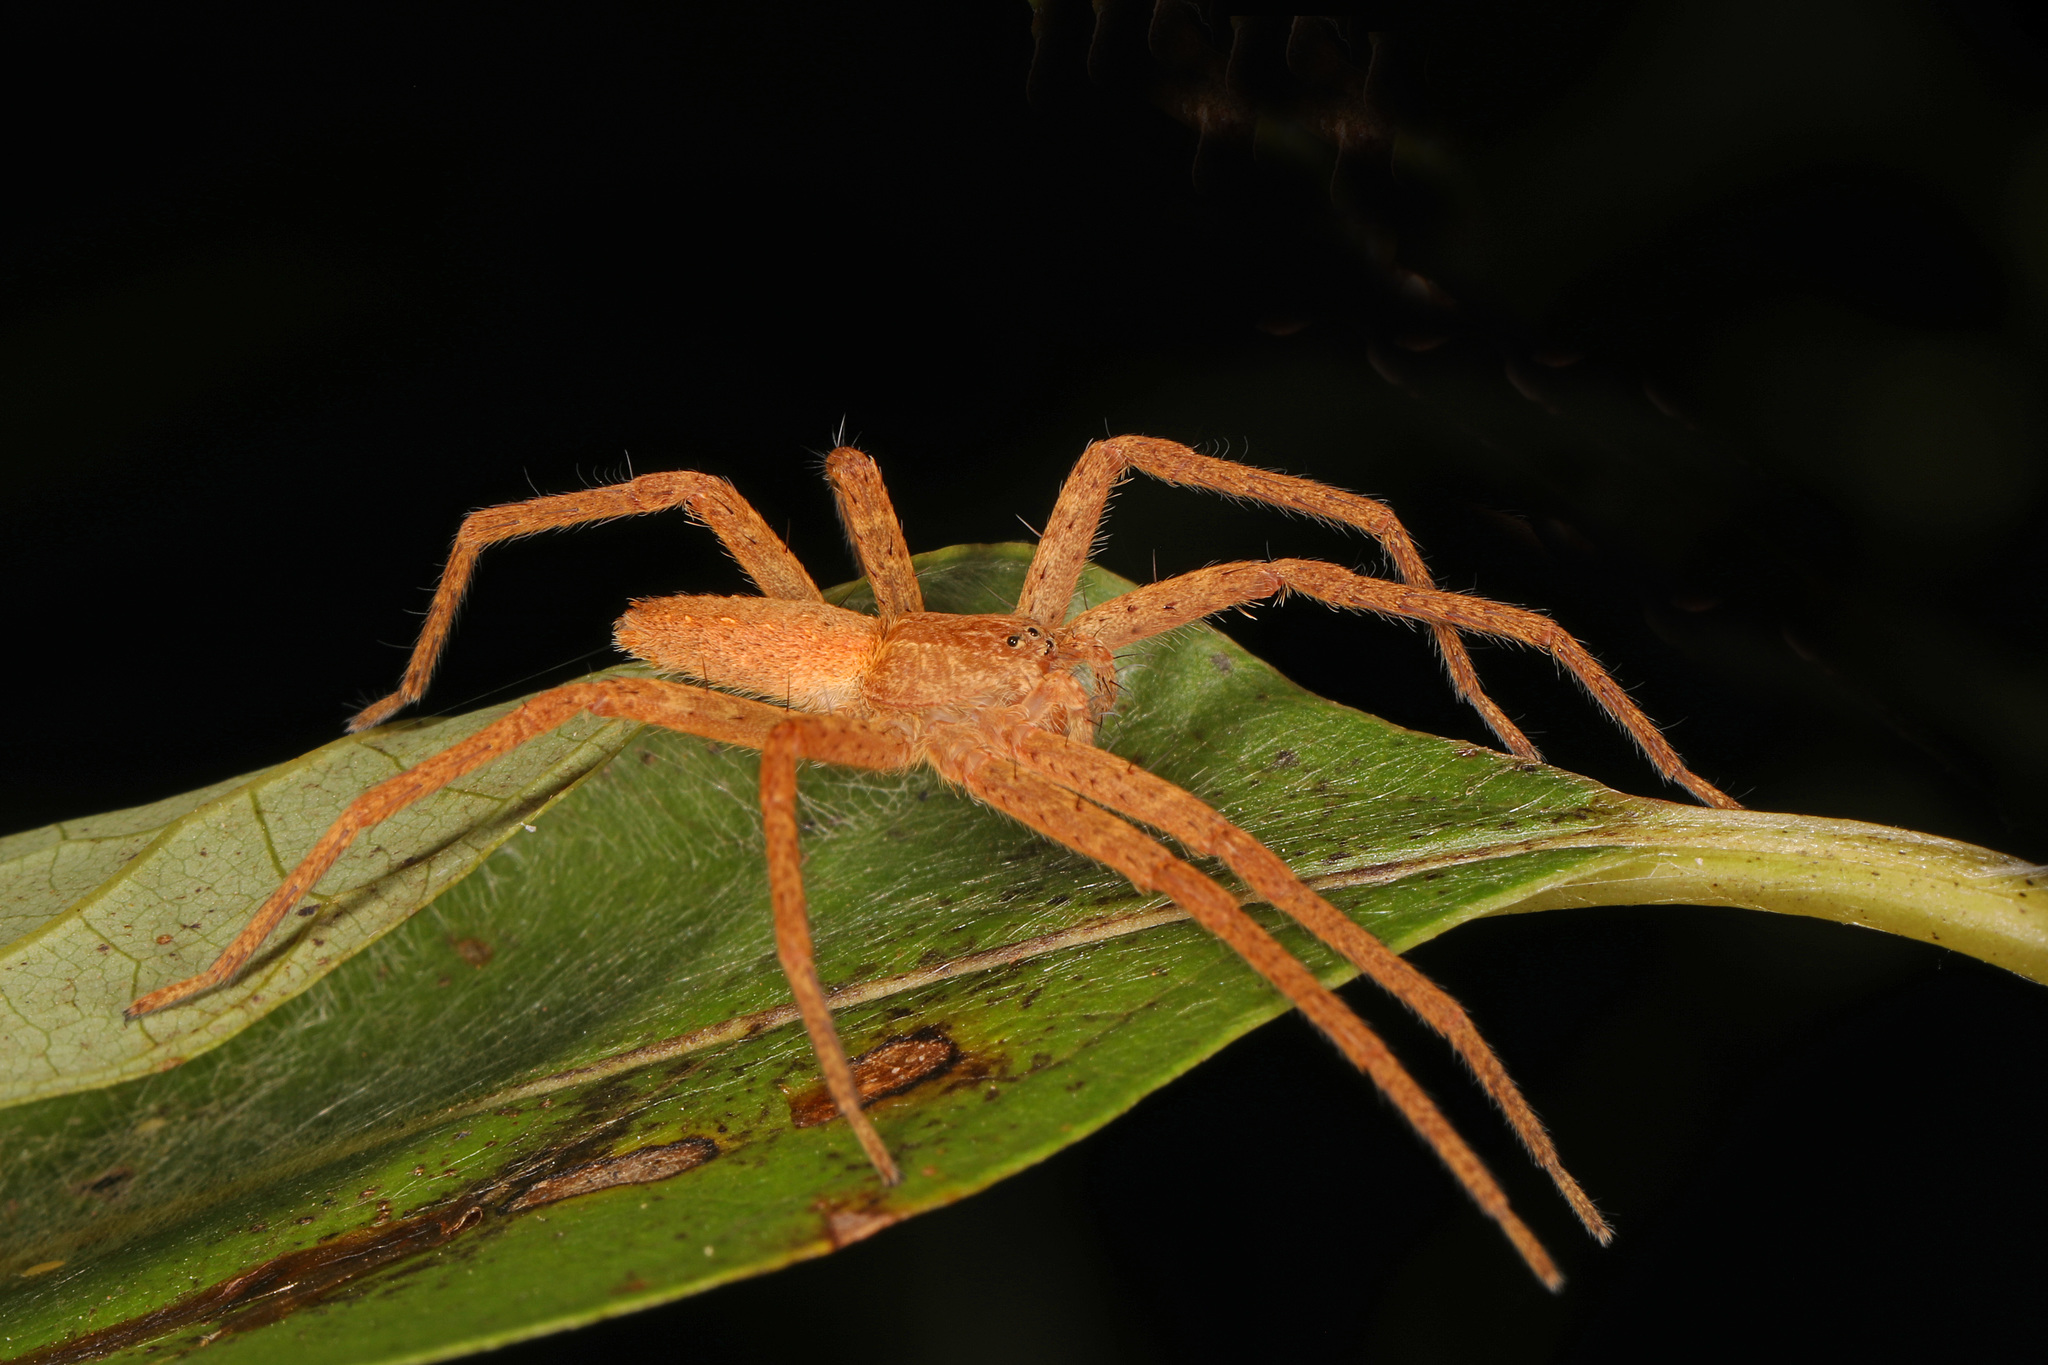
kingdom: Animalia
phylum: Arthropoda
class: Arachnida
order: Araneae
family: Pisauridae
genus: Pisaurina
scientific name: Pisaurina mira
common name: American nursery web spider
